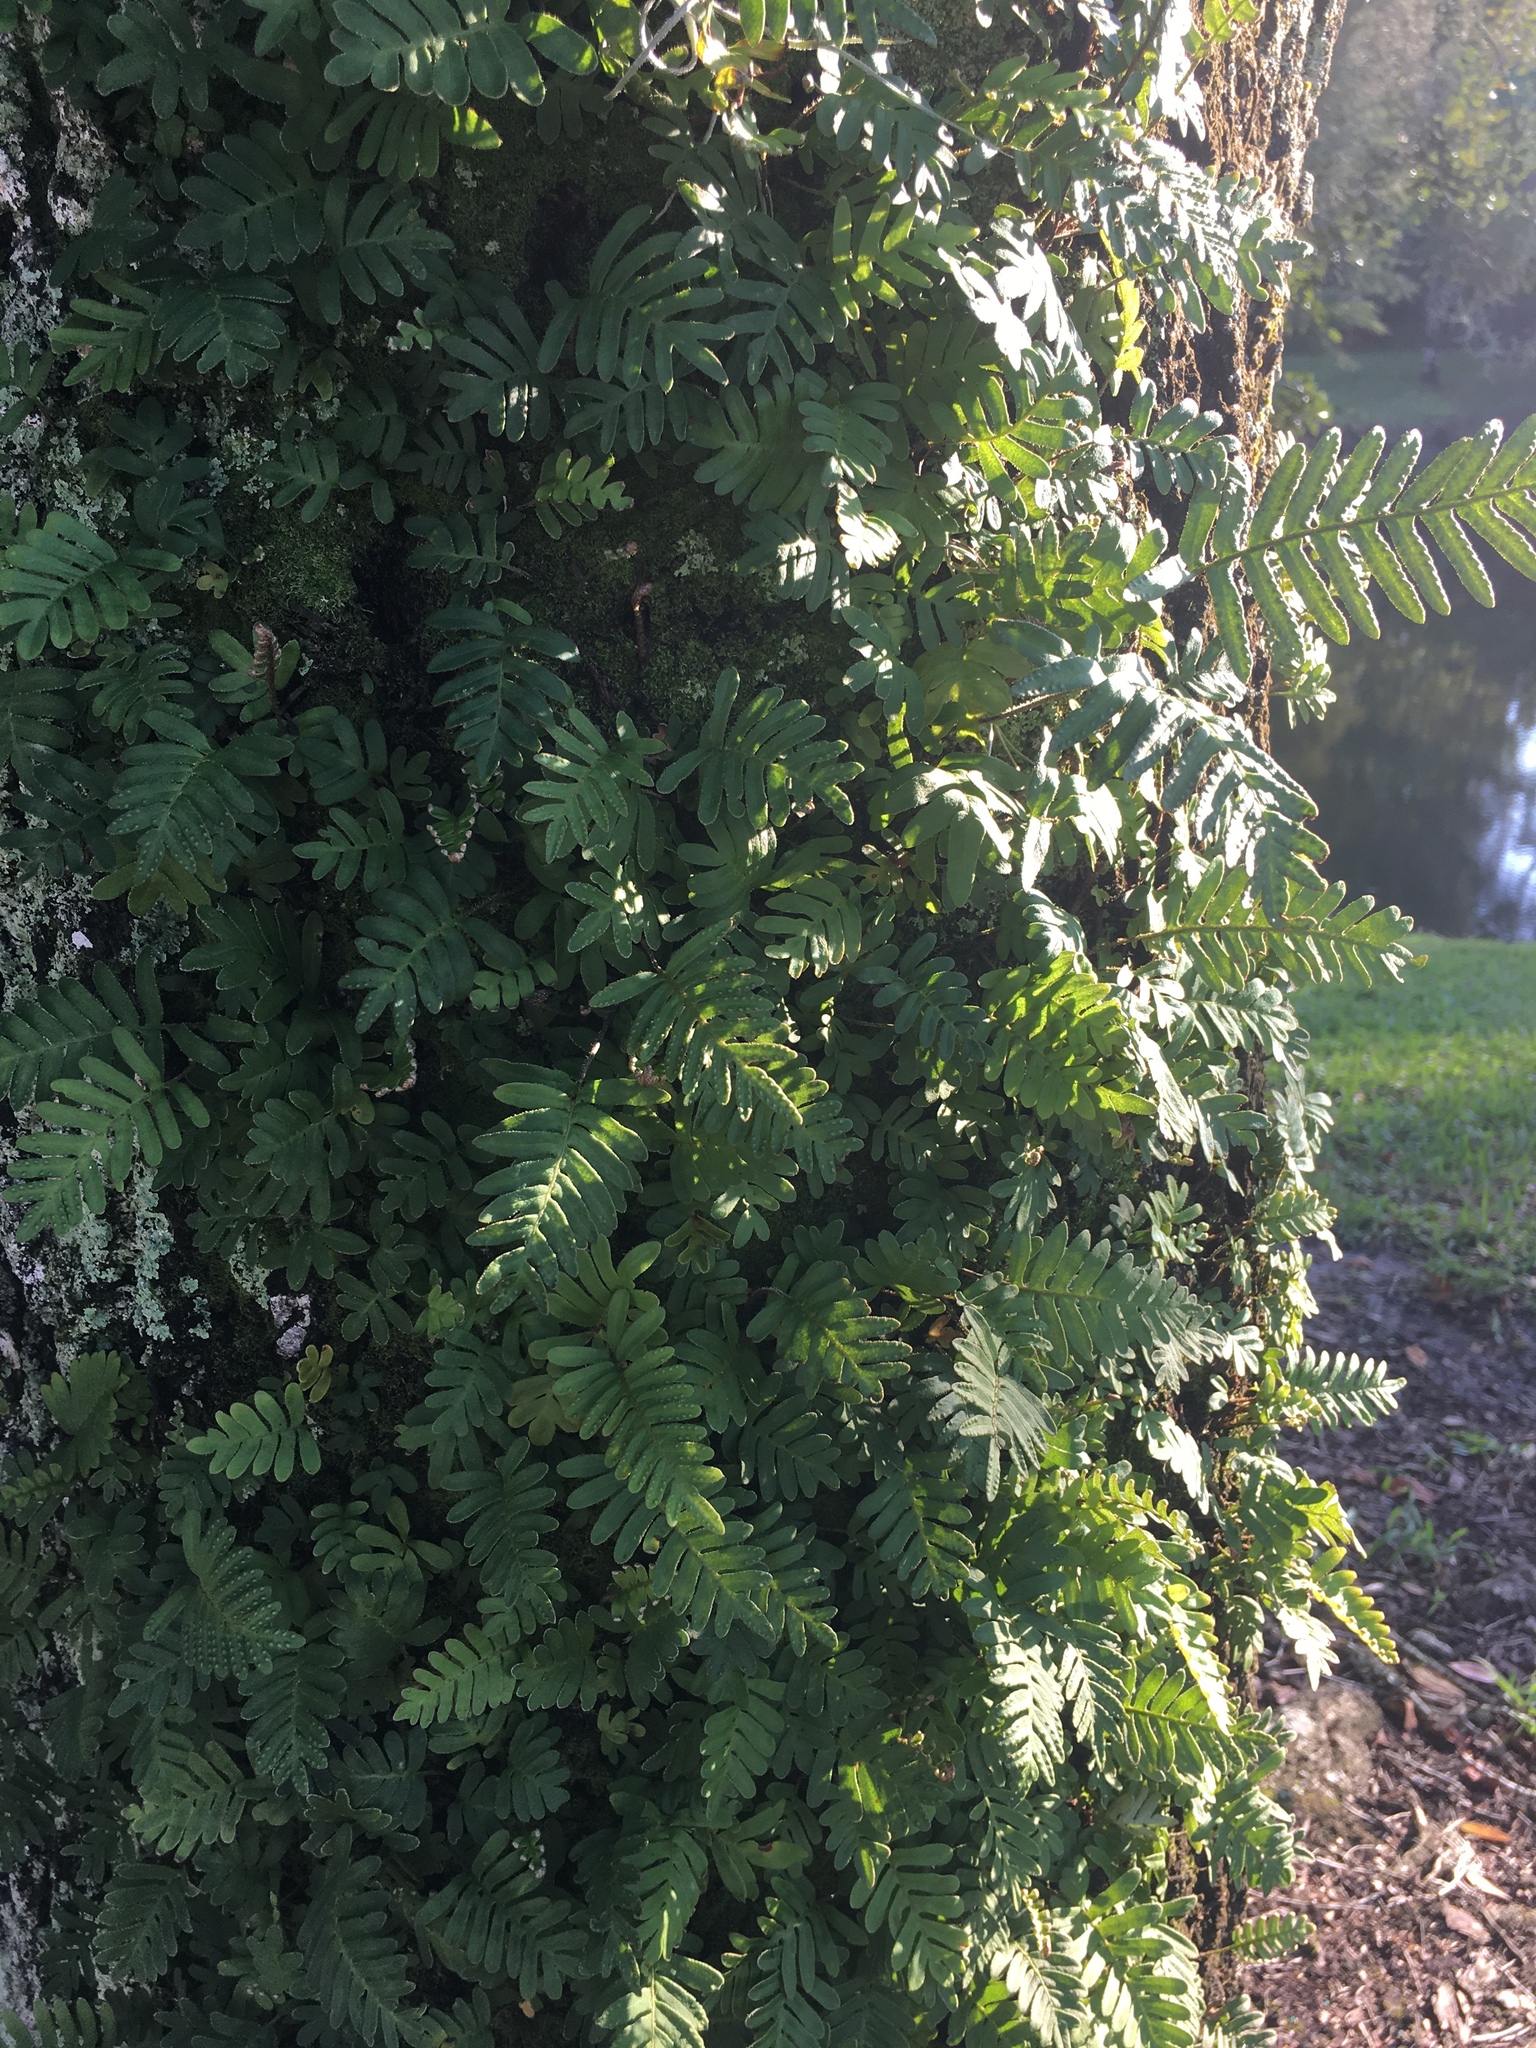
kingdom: Plantae
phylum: Tracheophyta
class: Polypodiopsida
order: Polypodiales
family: Polypodiaceae
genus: Pleopeltis
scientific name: Pleopeltis michauxiana
